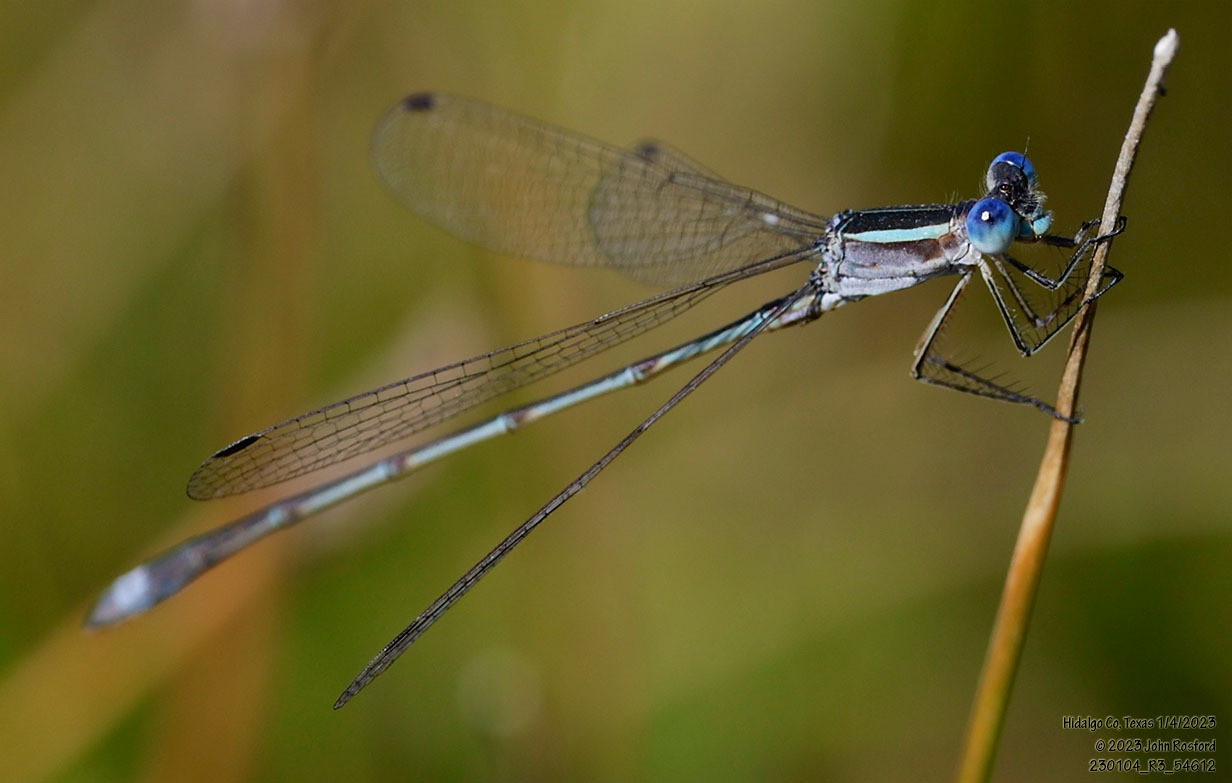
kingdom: Animalia
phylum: Arthropoda
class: Insecta
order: Odonata
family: Lestidae
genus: Lestes
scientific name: Lestes alacer
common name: Plateau spreadwing
